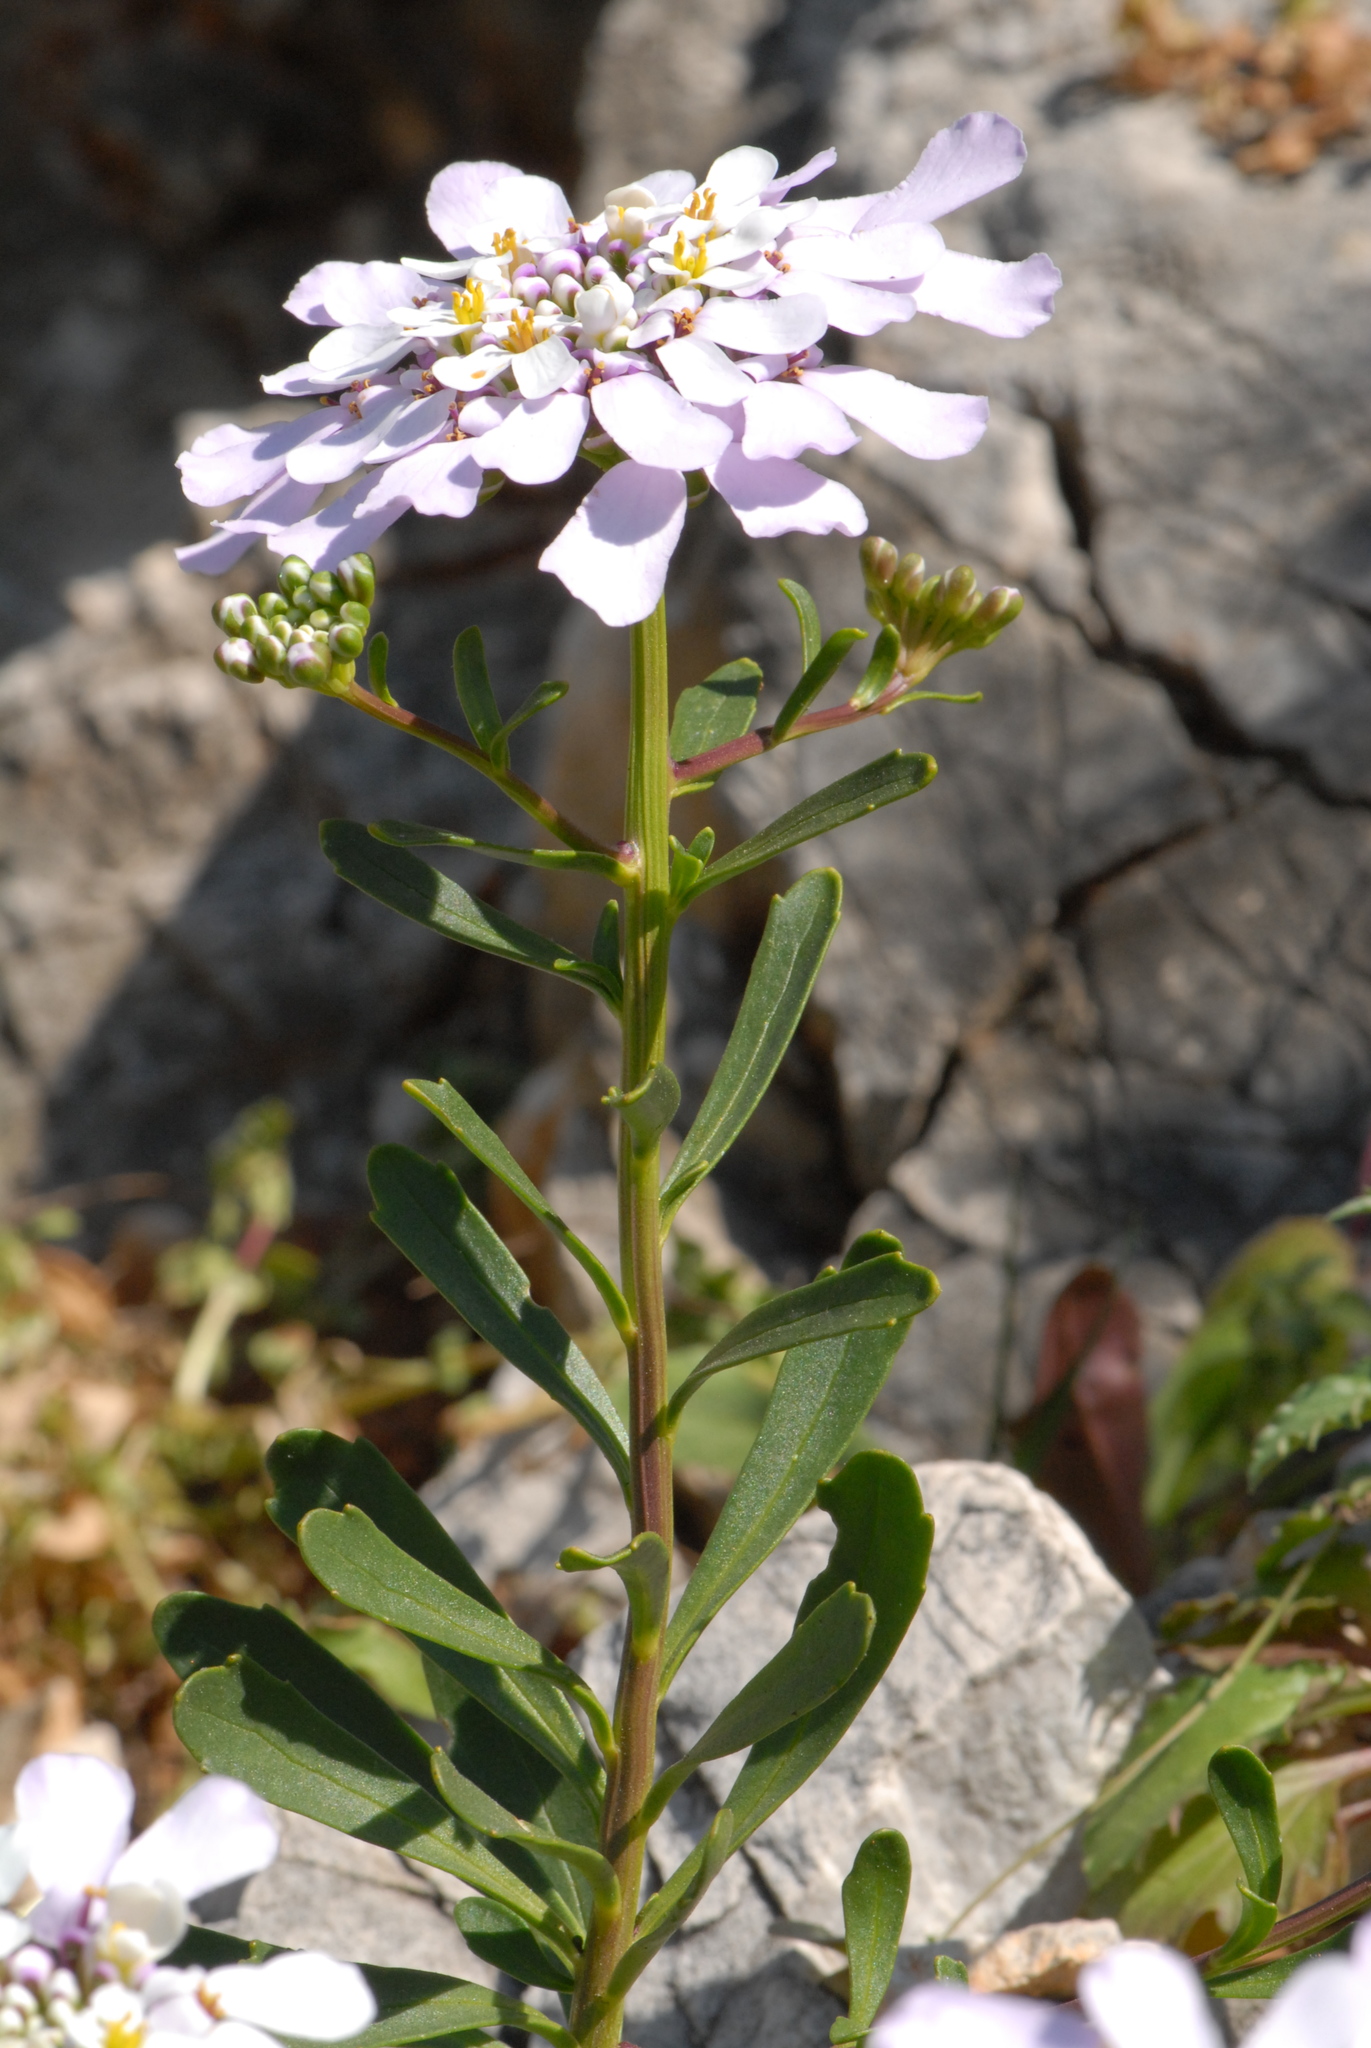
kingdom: Plantae
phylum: Tracheophyta
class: Magnoliopsida
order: Brassicales
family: Brassicaceae
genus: Iberis
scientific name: Iberis gibraltarica
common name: Gibraltar candytuft
